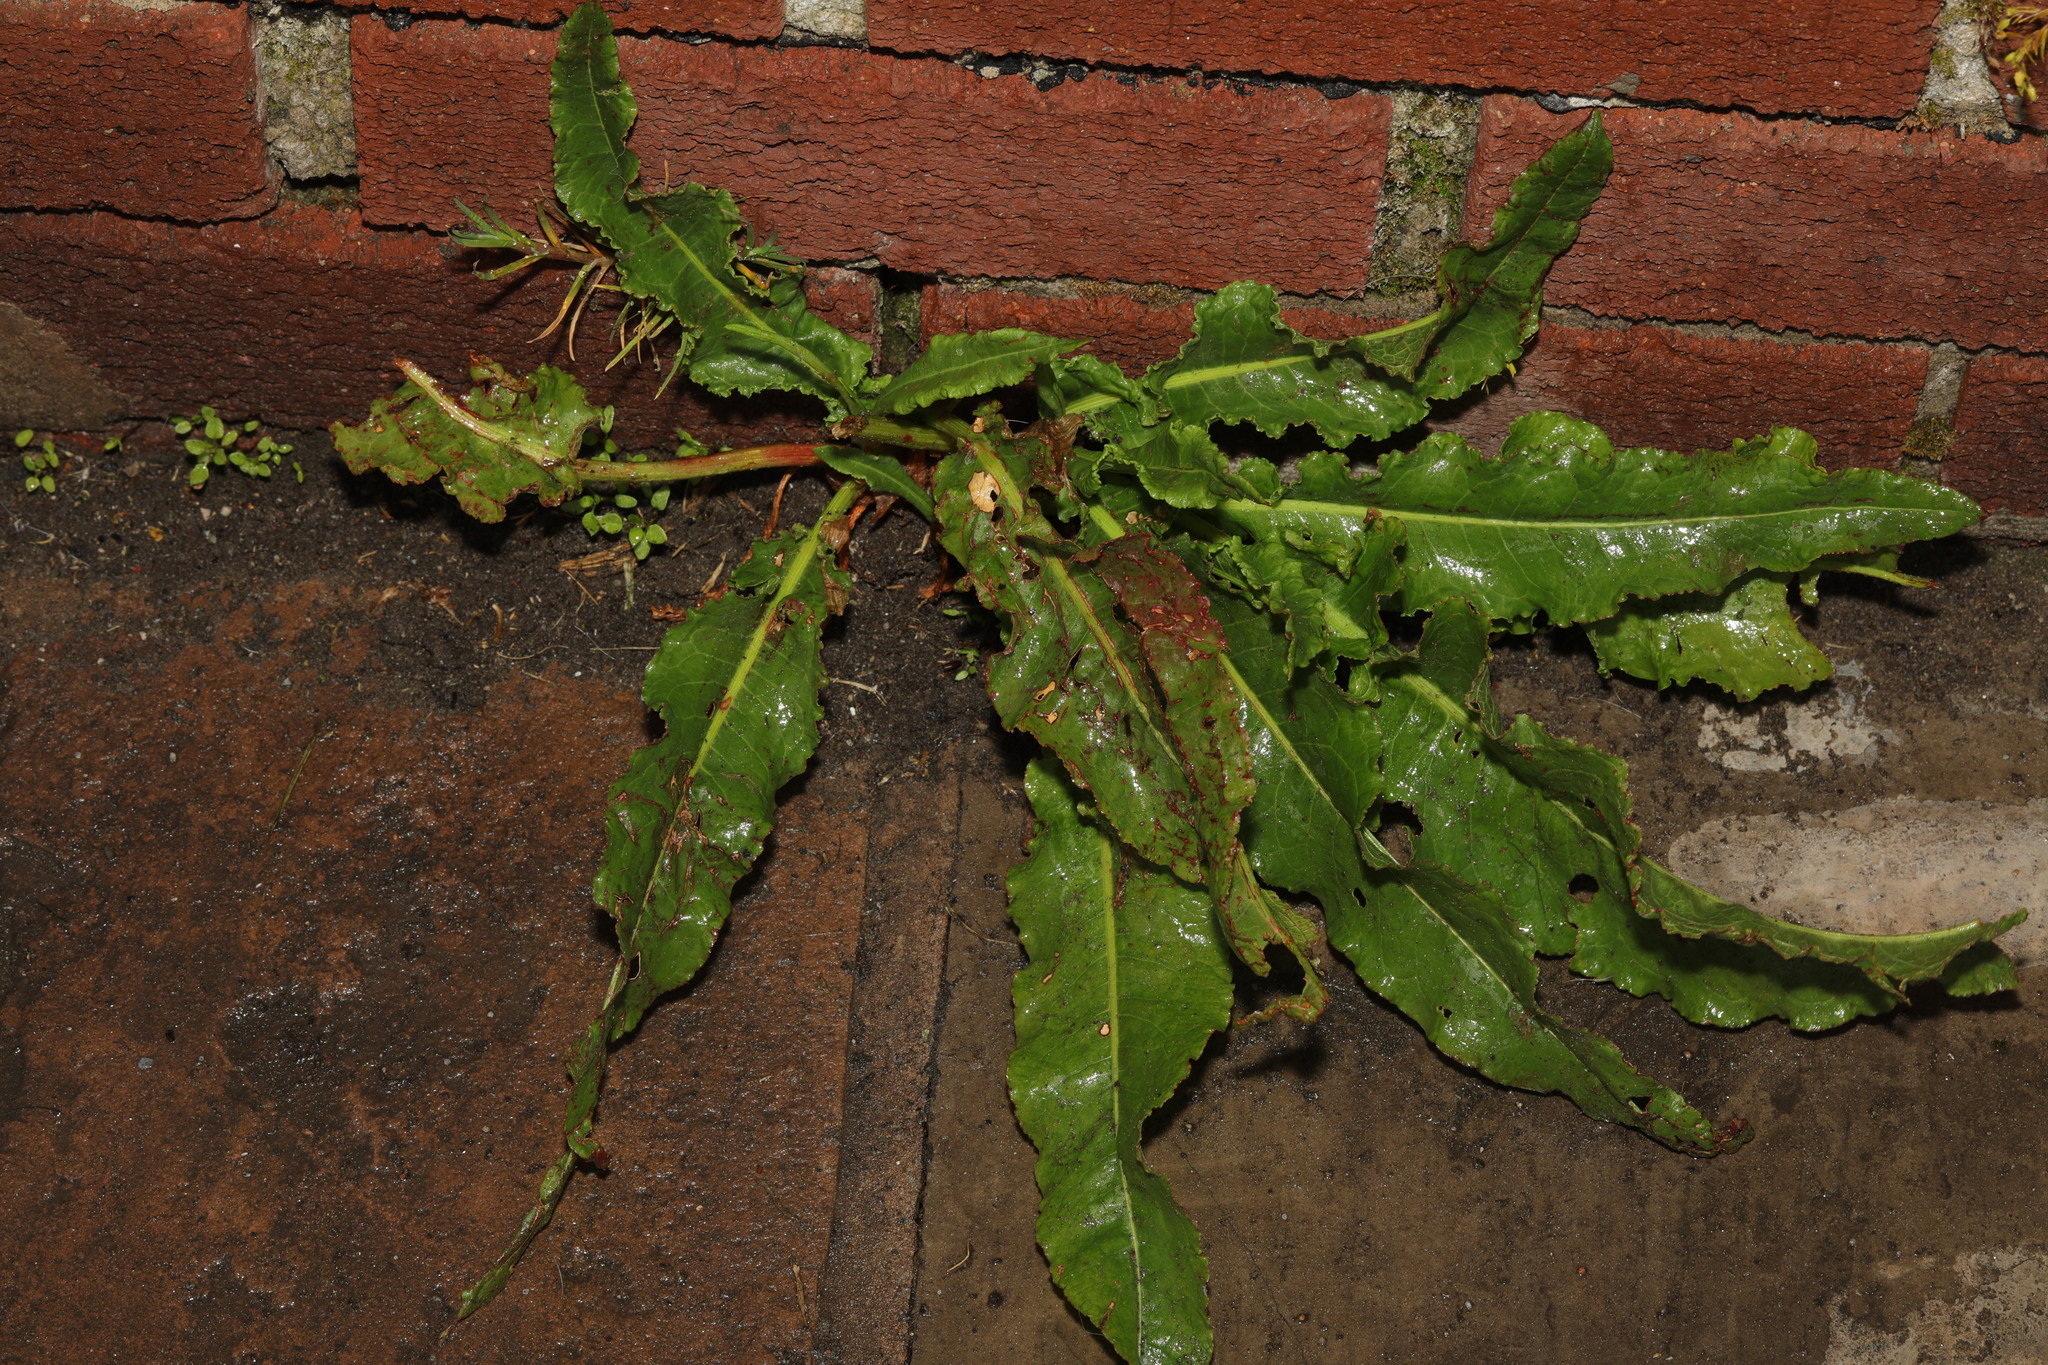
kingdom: Plantae
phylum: Tracheophyta
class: Magnoliopsida
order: Caryophyllales
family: Polygonaceae
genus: Rumex
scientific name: Rumex crispus
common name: Curled dock
